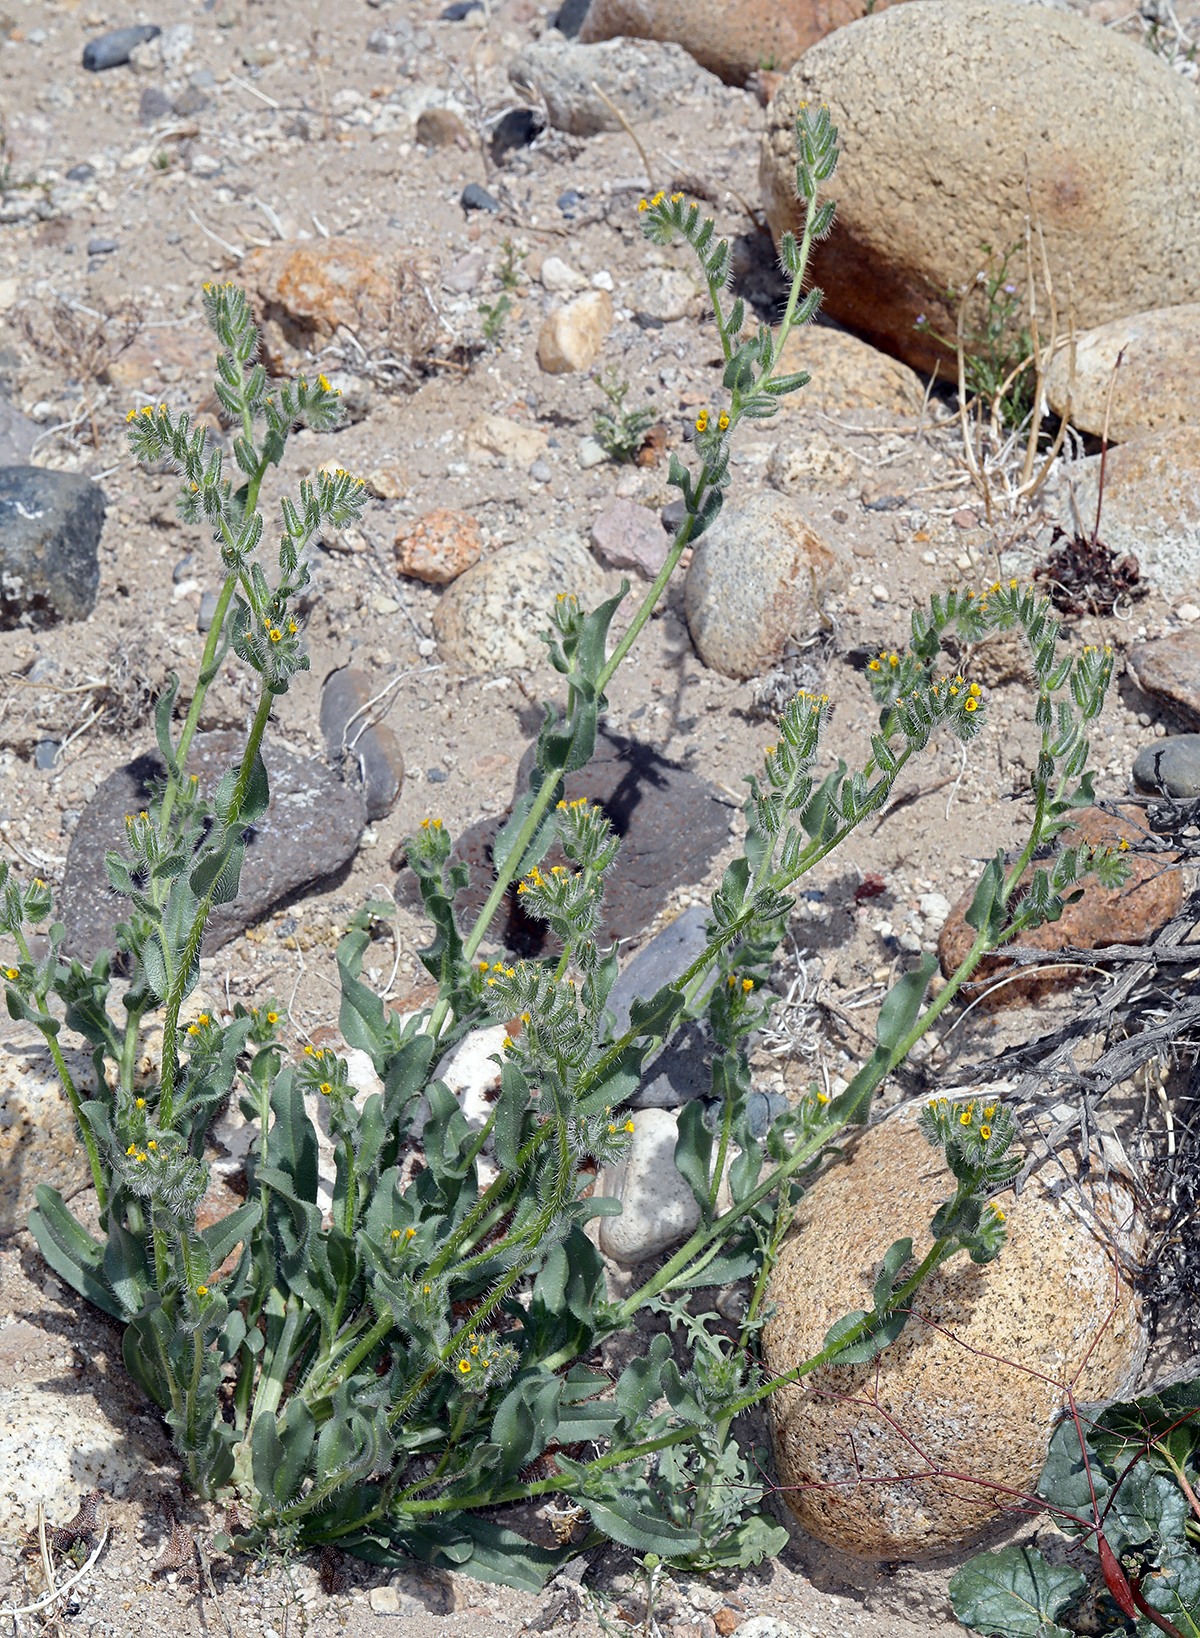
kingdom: Plantae
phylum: Tracheophyta
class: Magnoliopsida
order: Boraginales
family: Boraginaceae
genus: Amsinckia
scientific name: Amsinckia tessellata
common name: Tessellate fiddleneck
